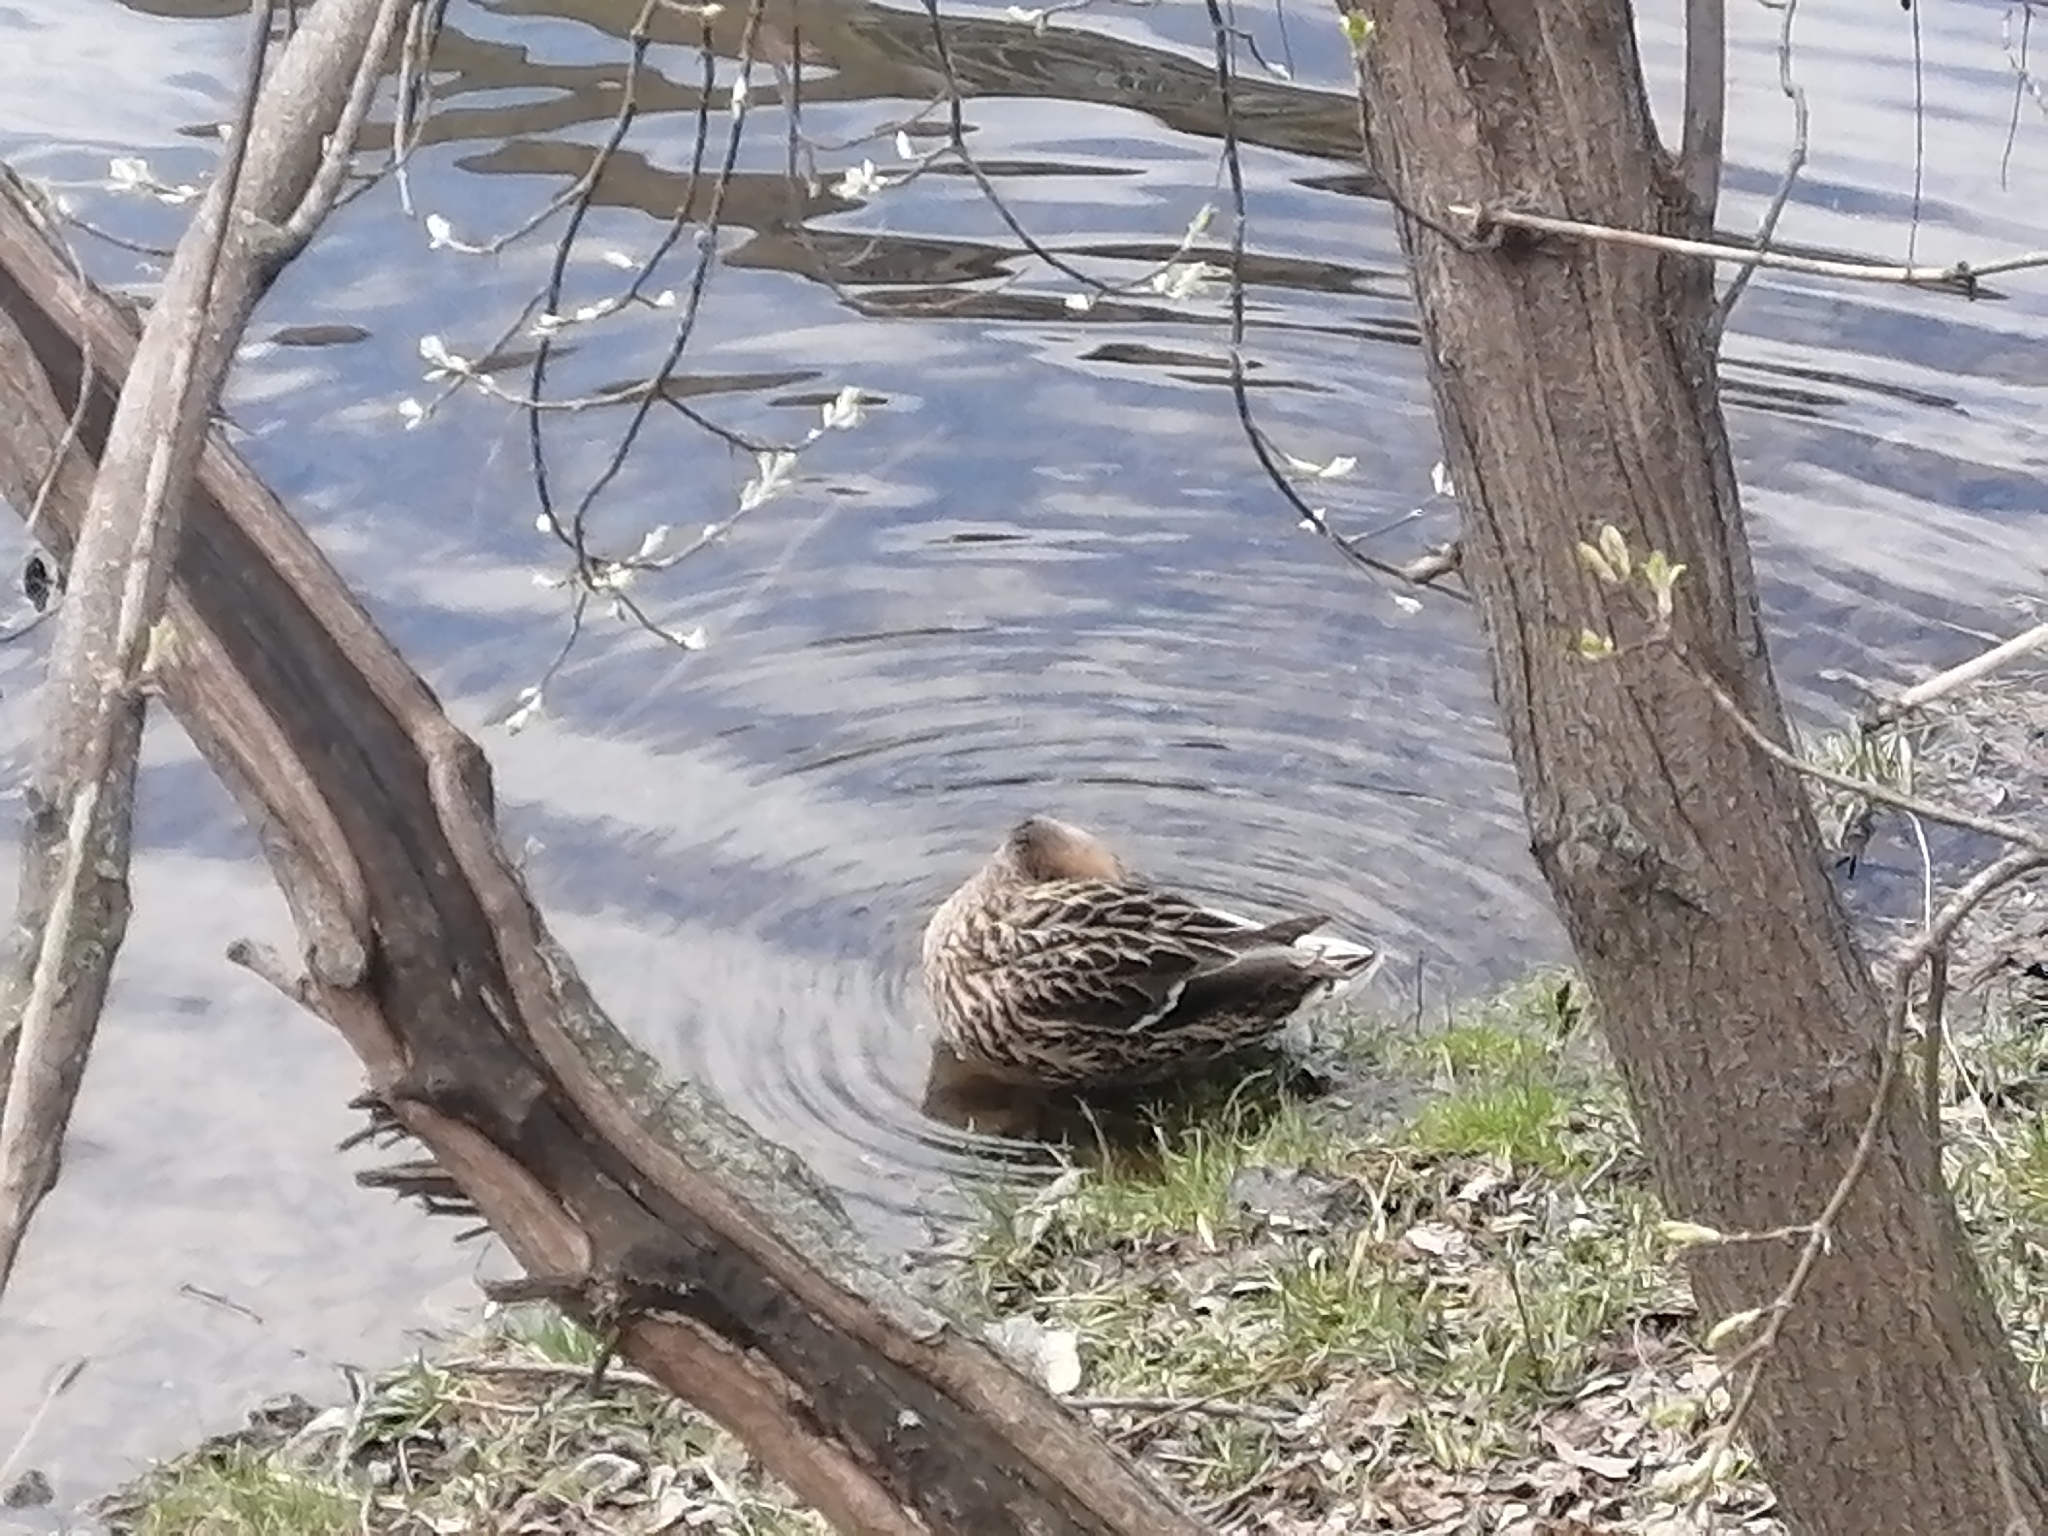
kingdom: Animalia
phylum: Chordata
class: Aves
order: Anseriformes
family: Anatidae
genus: Anas
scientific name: Anas platyrhynchos
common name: Mallard
